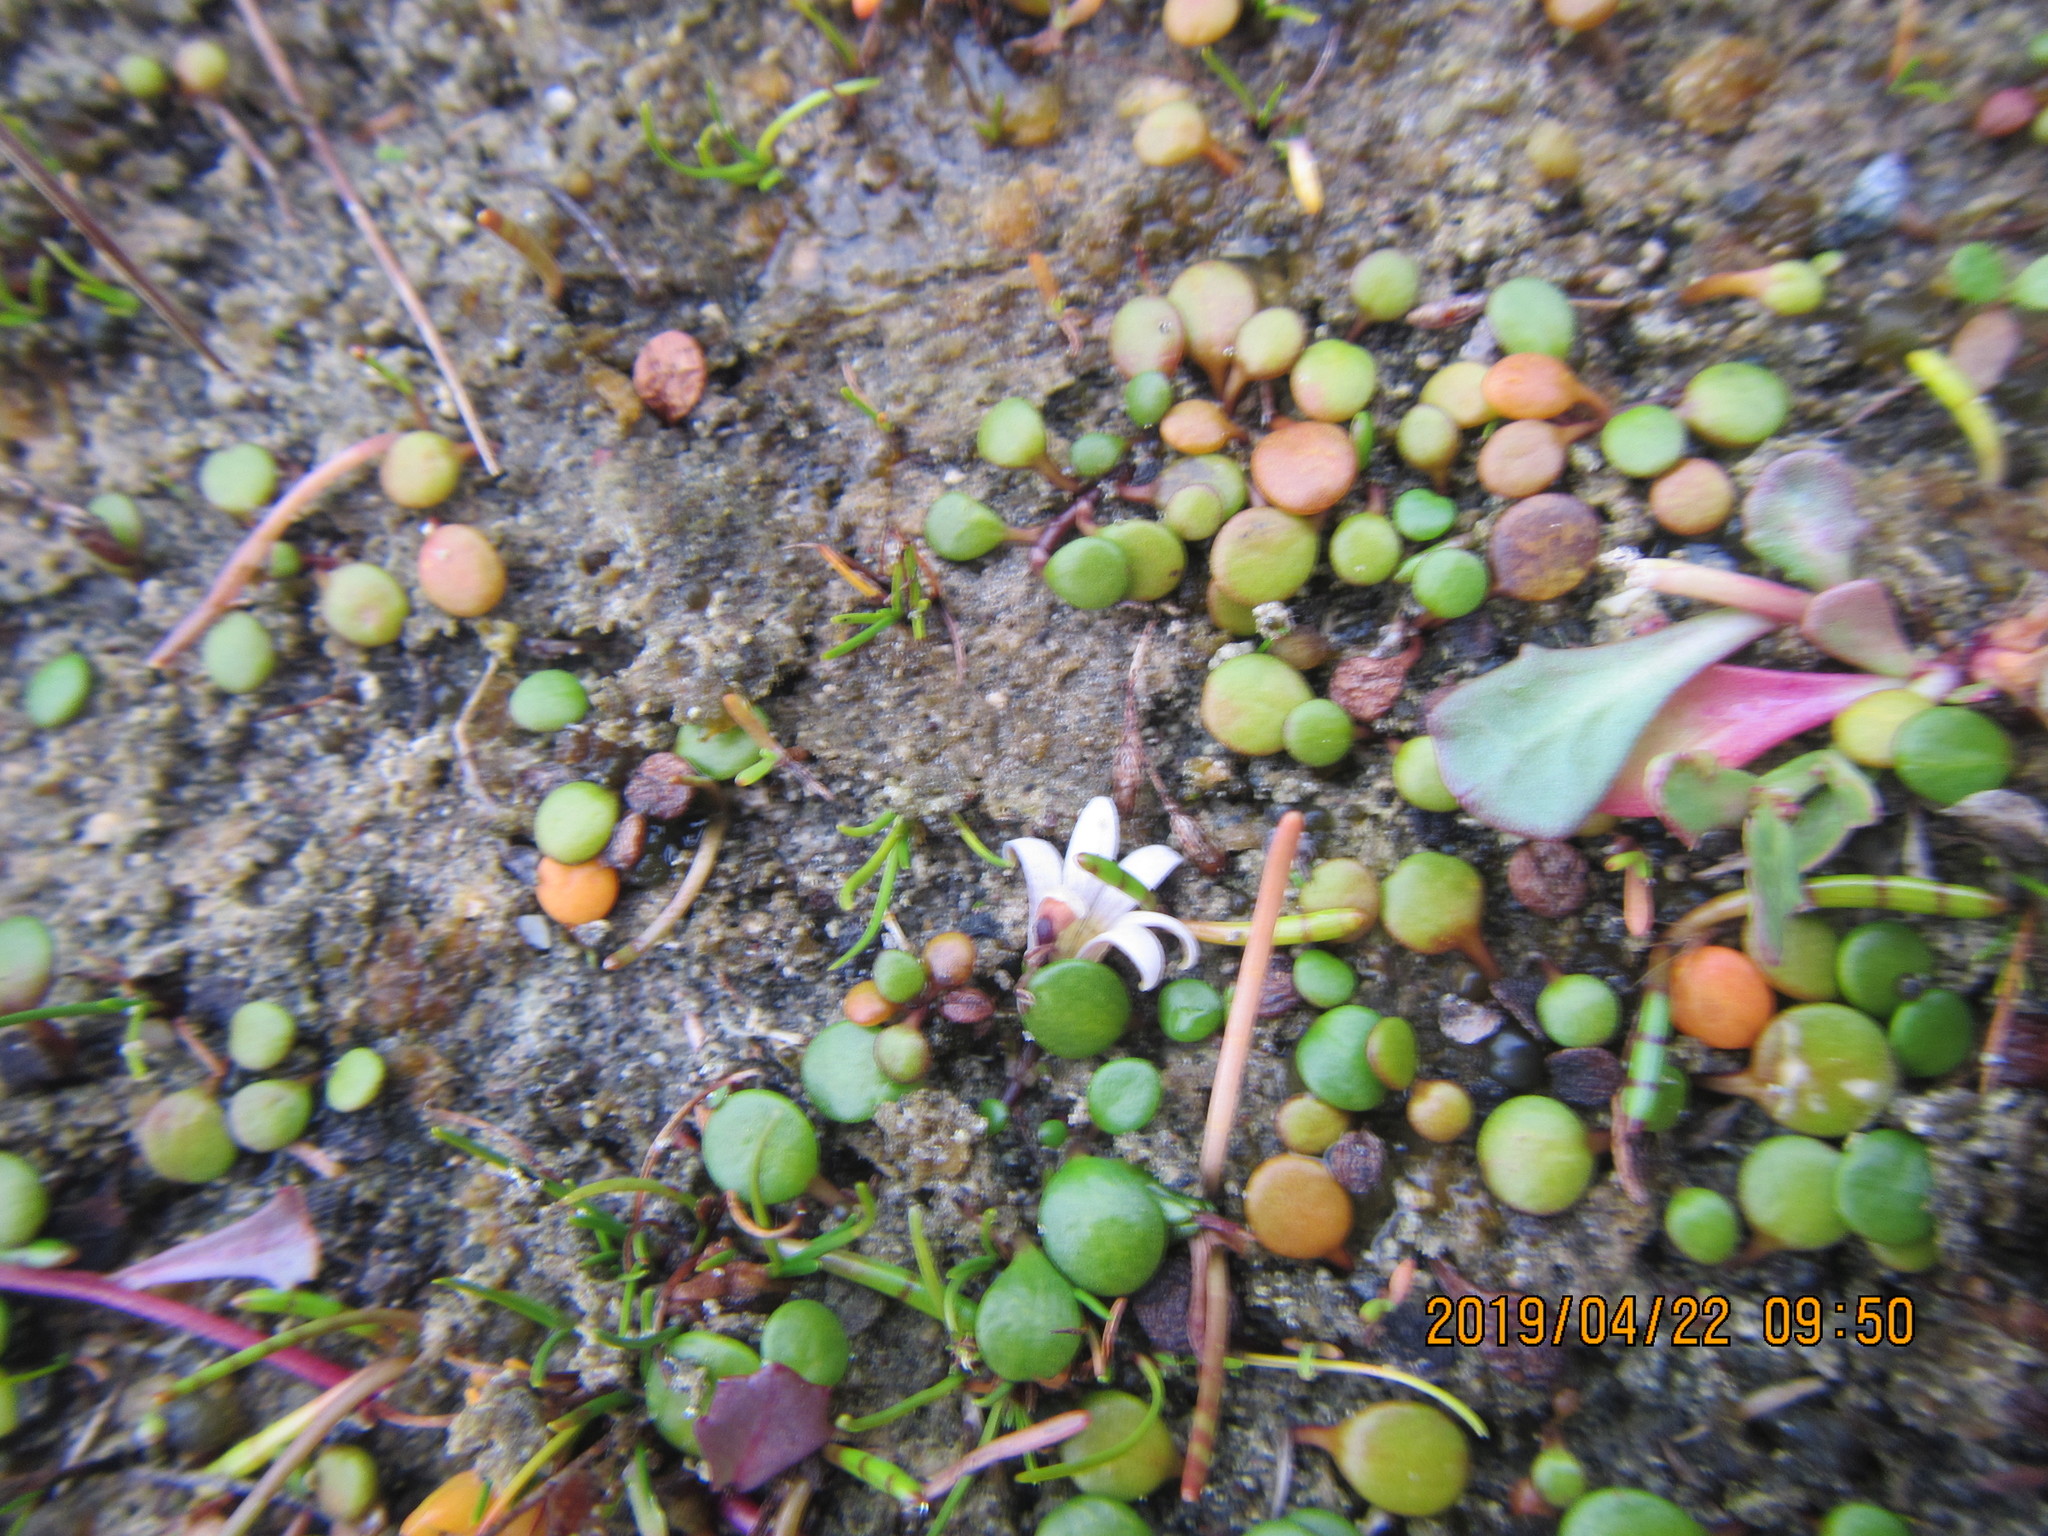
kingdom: Plantae
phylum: Tracheophyta
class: Magnoliopsida
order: Apiales
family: Apiaceae
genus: Lilaeopsis
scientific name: Lilaeopsis novae-zelandiae
